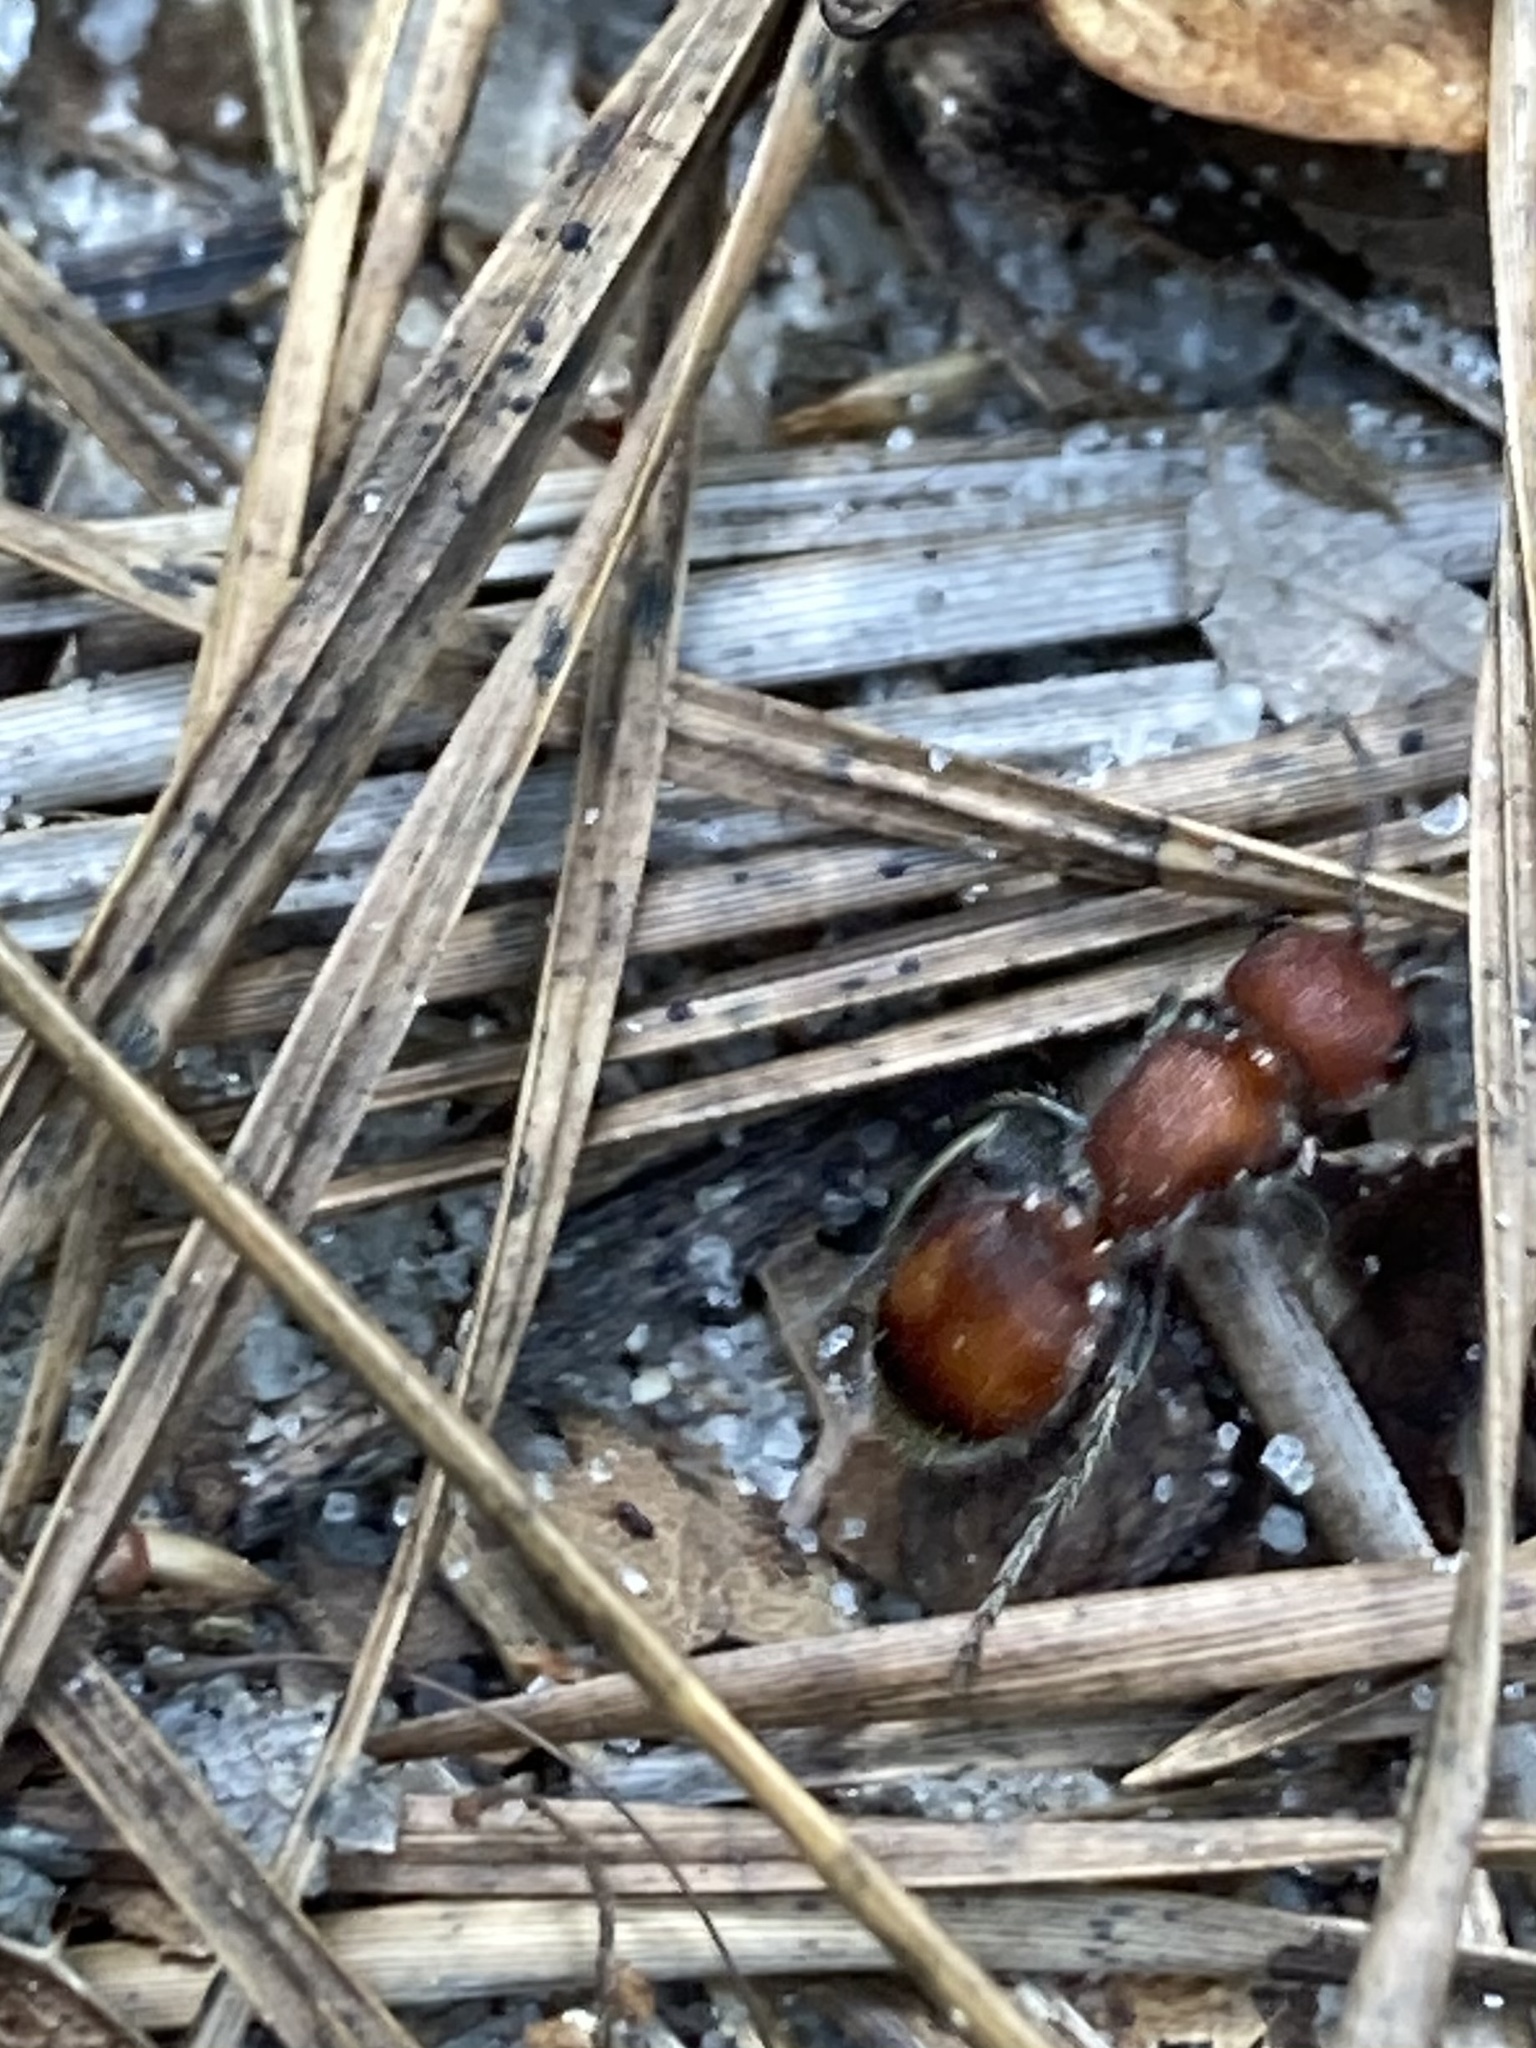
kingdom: Animalia
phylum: Arthropoda
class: Insecta
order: Hymenoptera
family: Mutillidae
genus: Pseudomethoca
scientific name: Pseudomethoca
